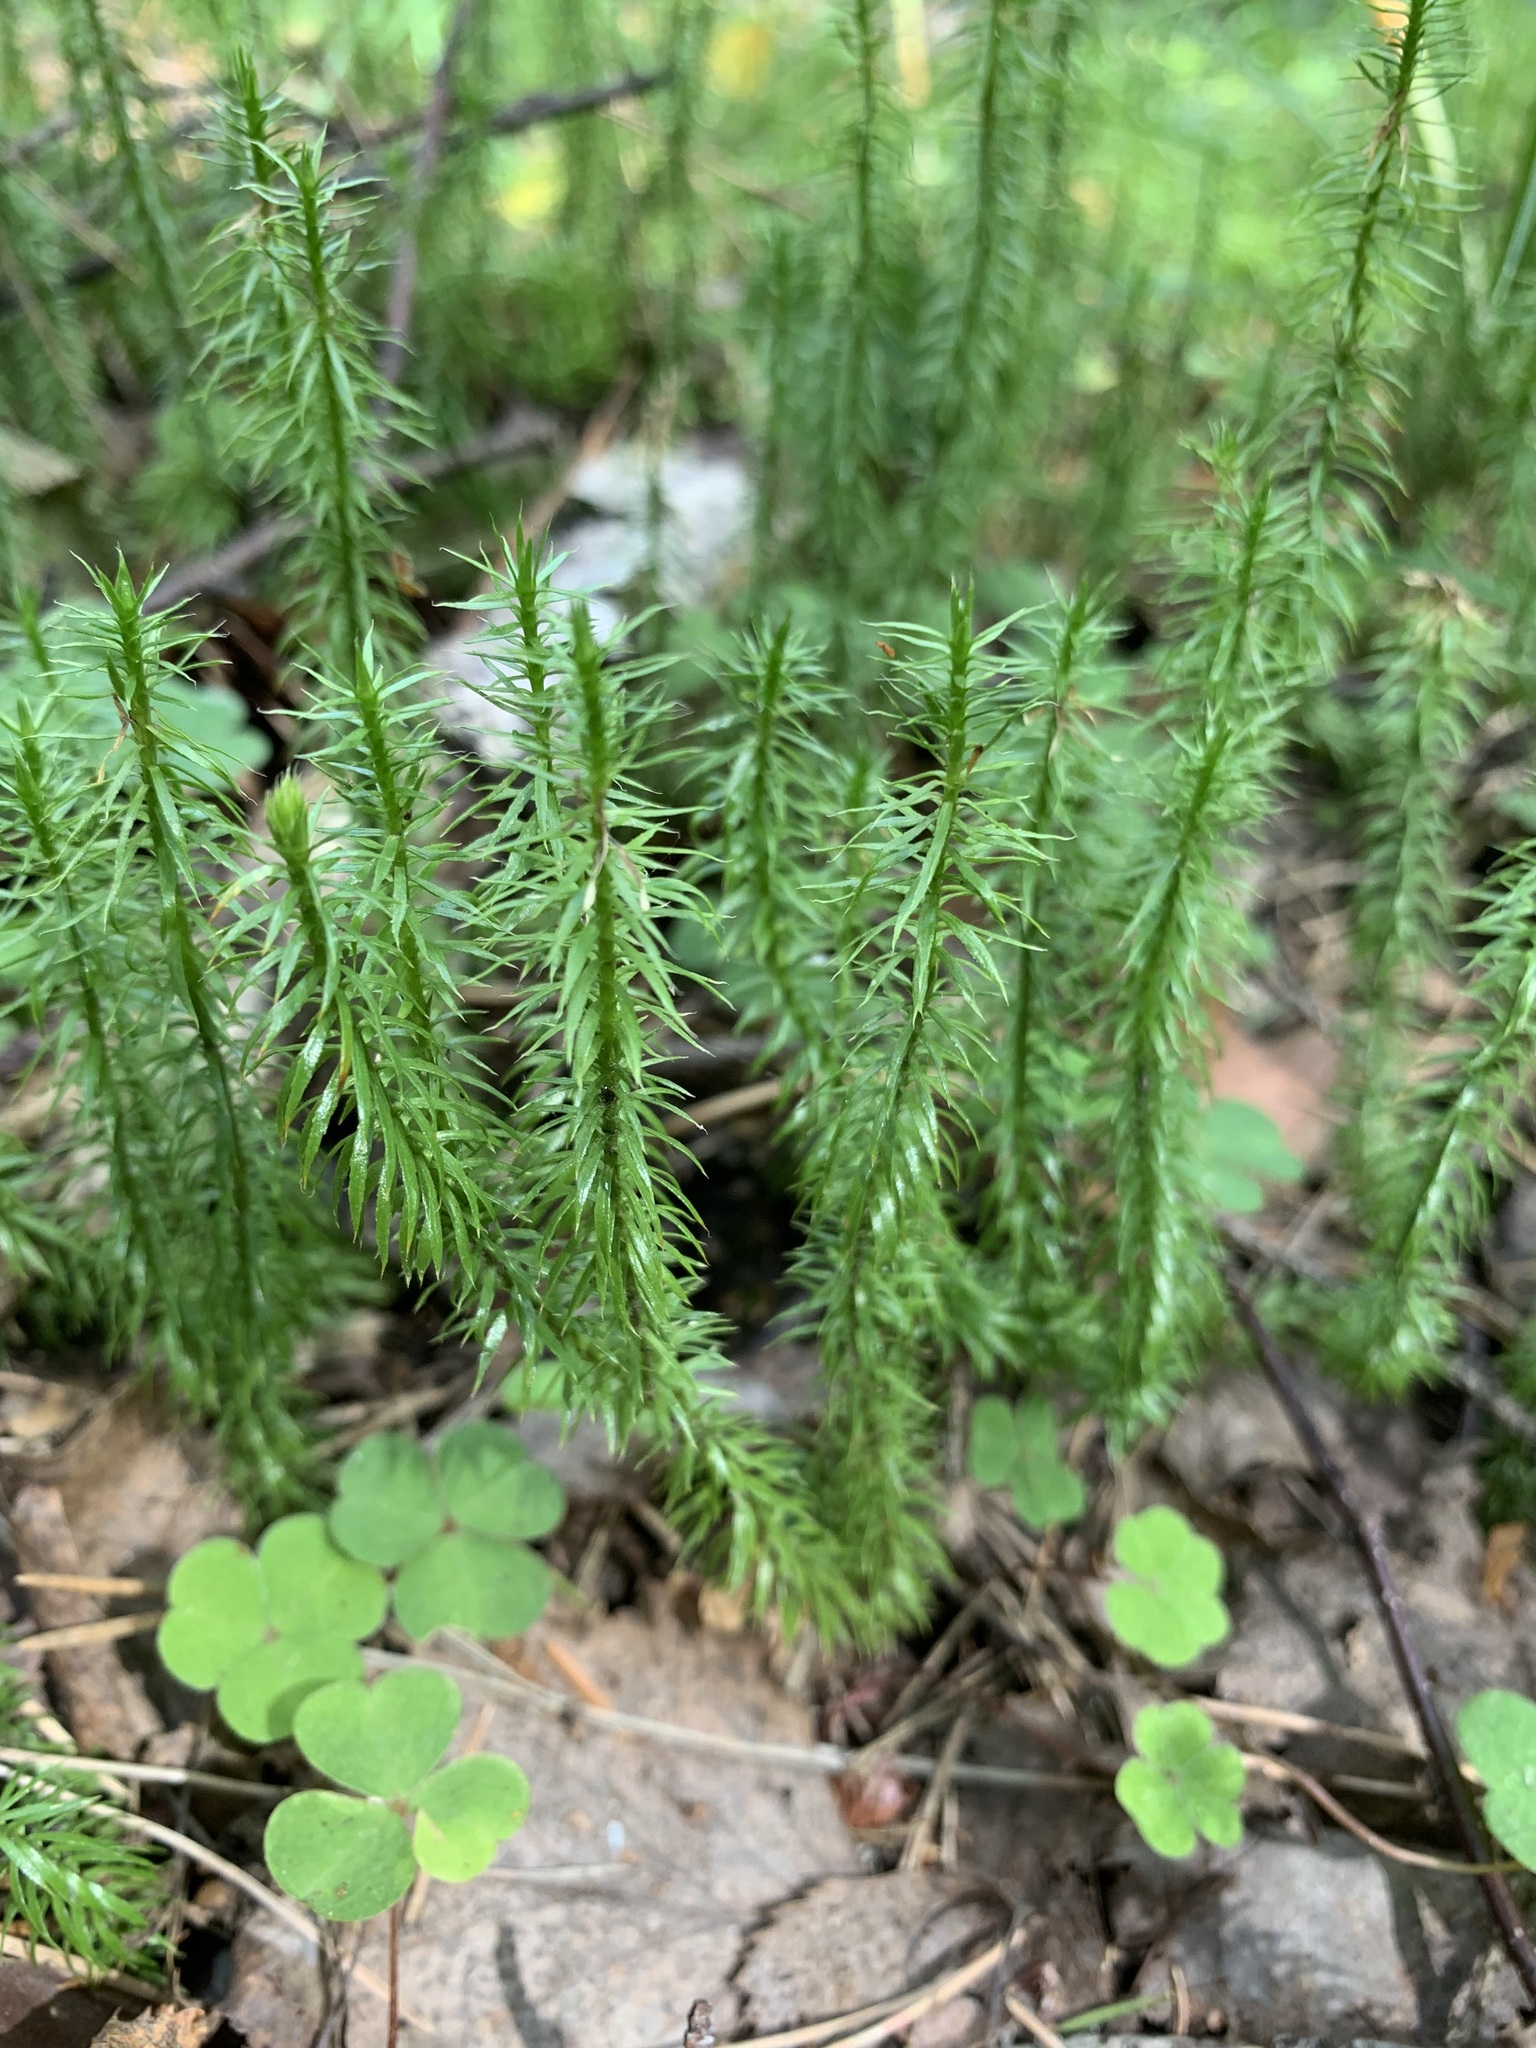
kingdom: Plantae
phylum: Tracheophyta
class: Lycopodiopsida
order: Lycopodiales
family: Lycopodiaceae
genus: Spinulum
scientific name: Spinulum annotinum
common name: Interrupted club-moss
